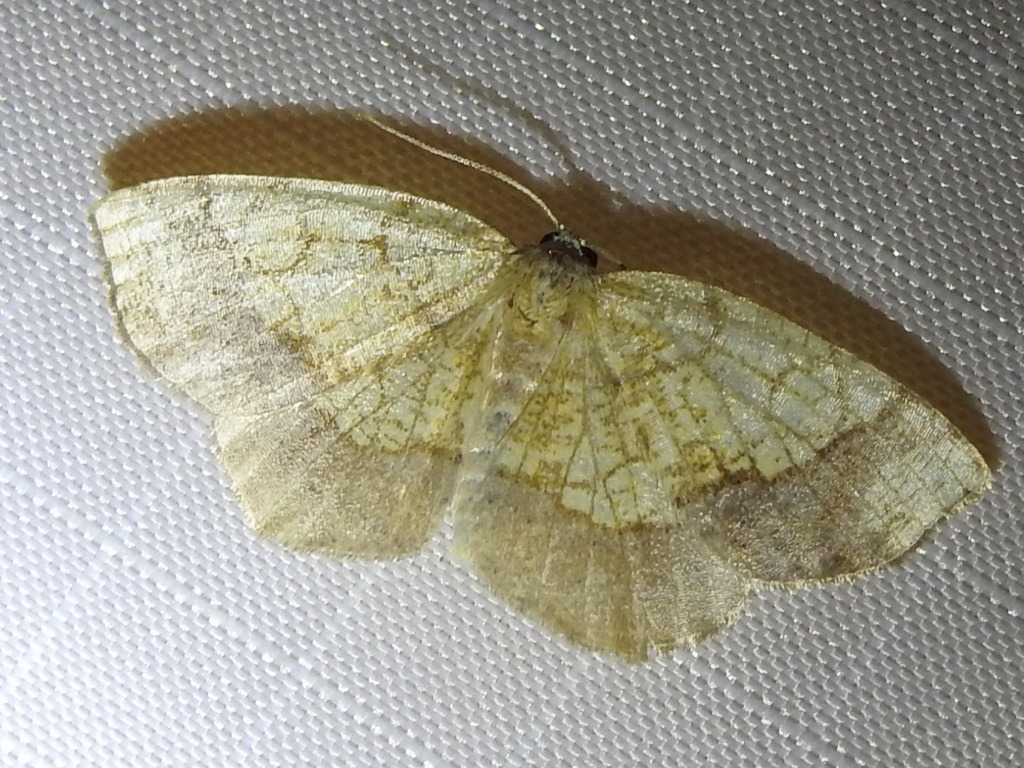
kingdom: Animalia
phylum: Arthropoda
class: Insecta
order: Lepidoptera
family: Geometridae
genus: Nematocampa
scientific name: Nematocampa resistaria
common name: Horned spanworm moth
